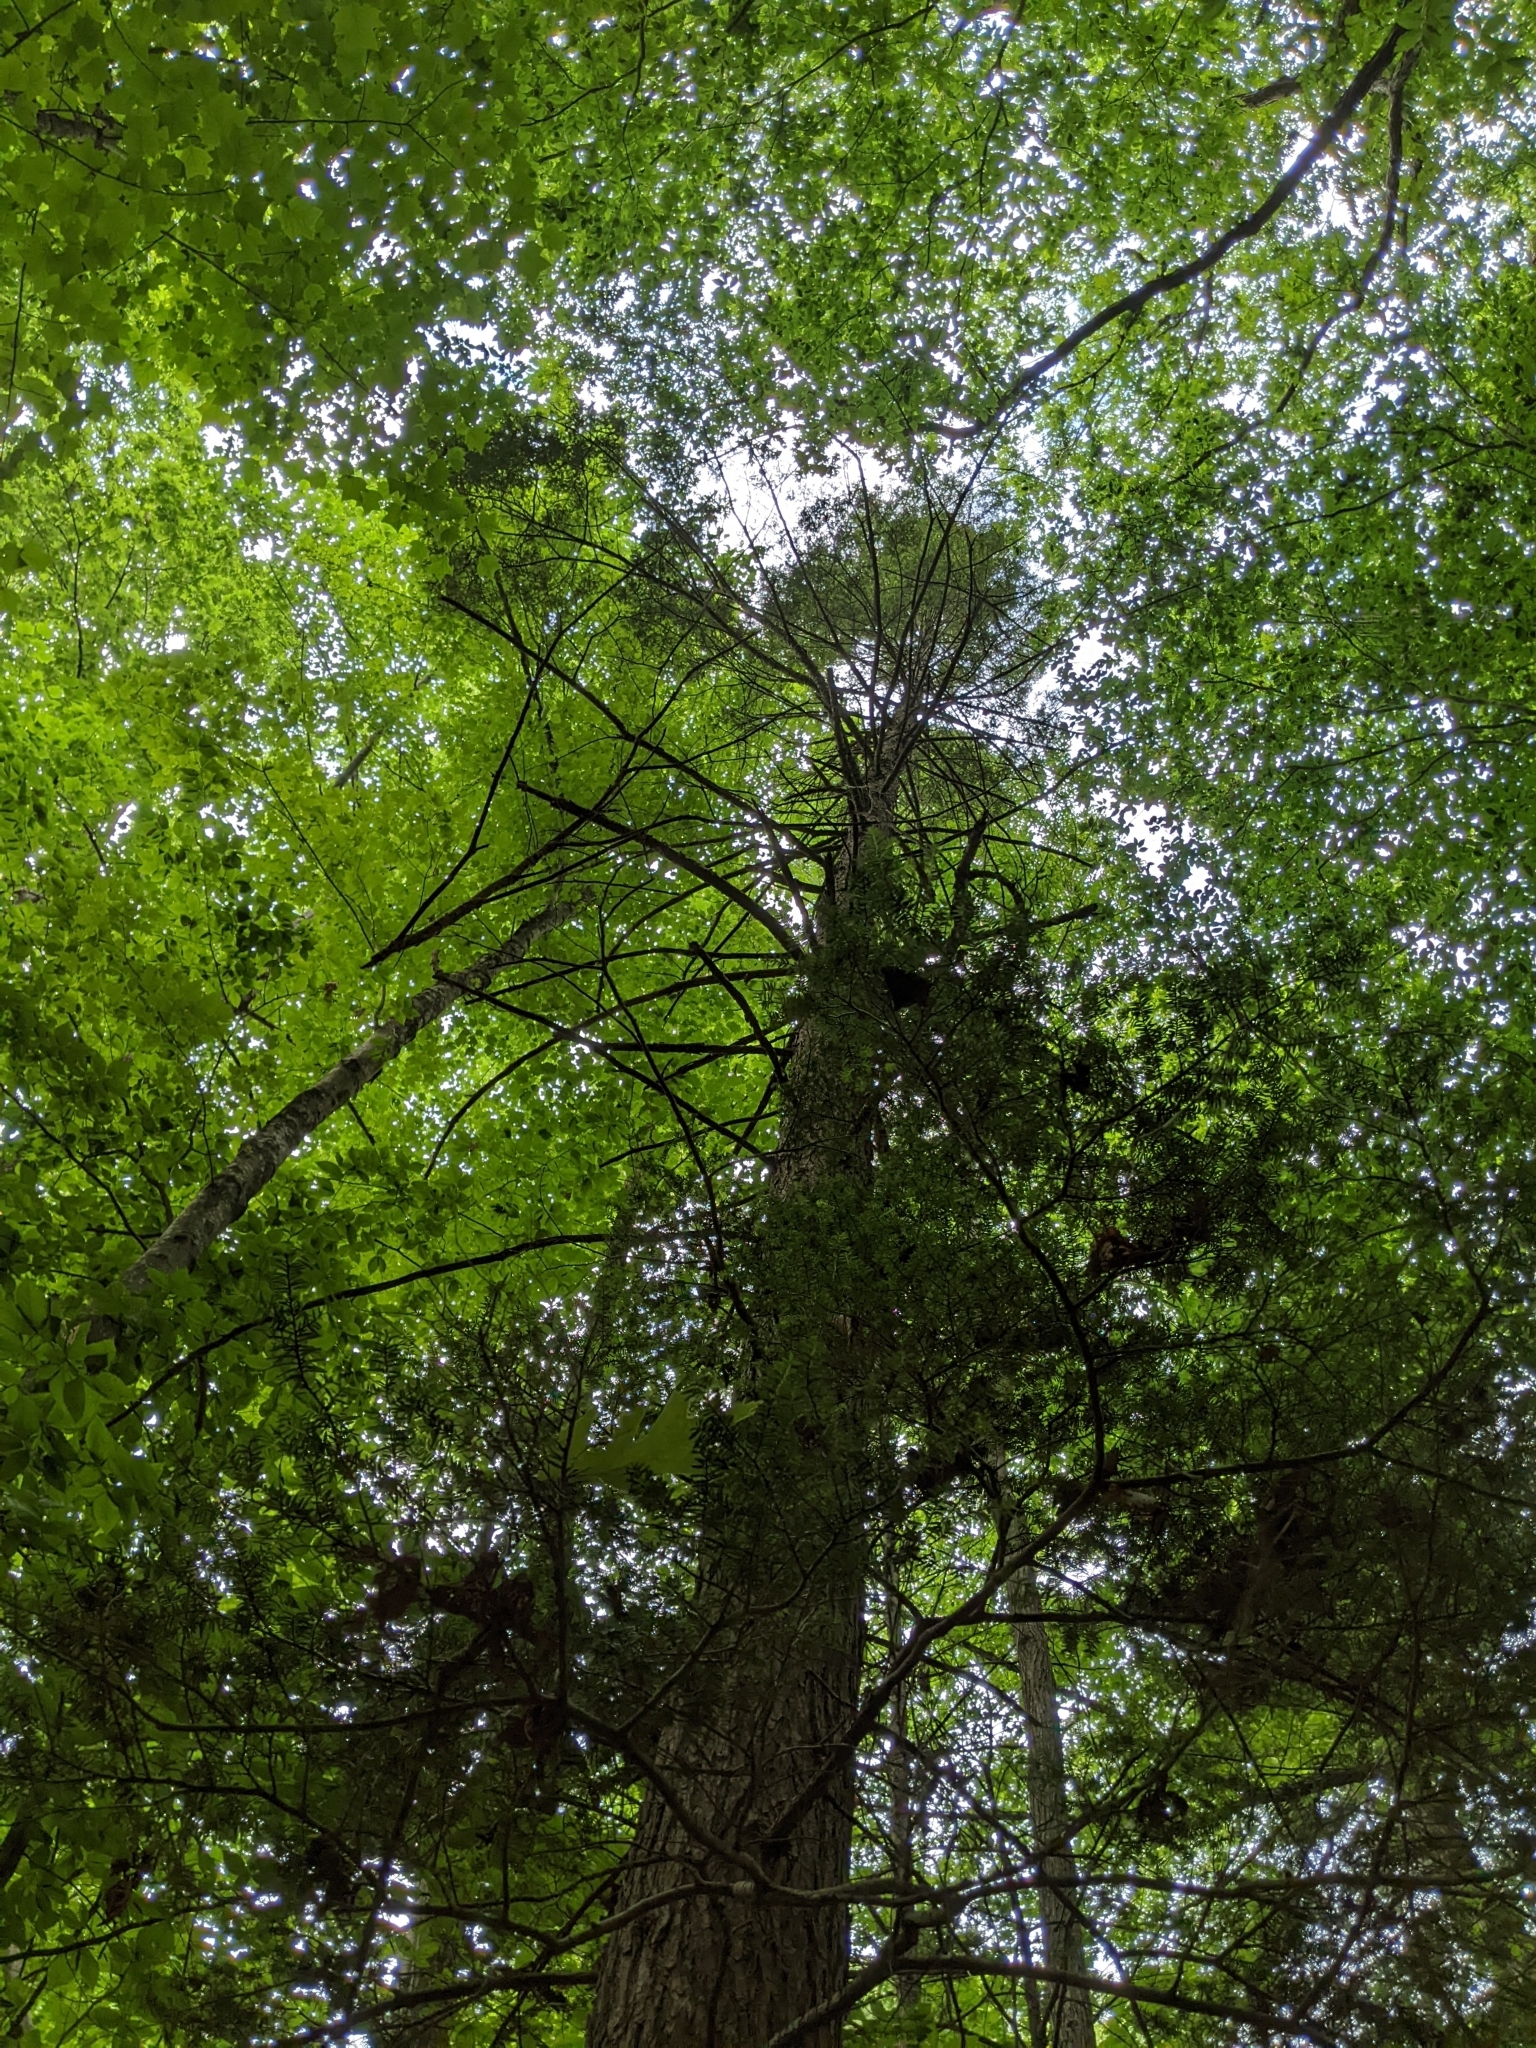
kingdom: Plantae
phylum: Tracheophyta
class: Pinopsida
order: Pinales
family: Pinaceae
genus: Tsuga
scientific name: Tsuga canadensis
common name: Eastern hemlock
